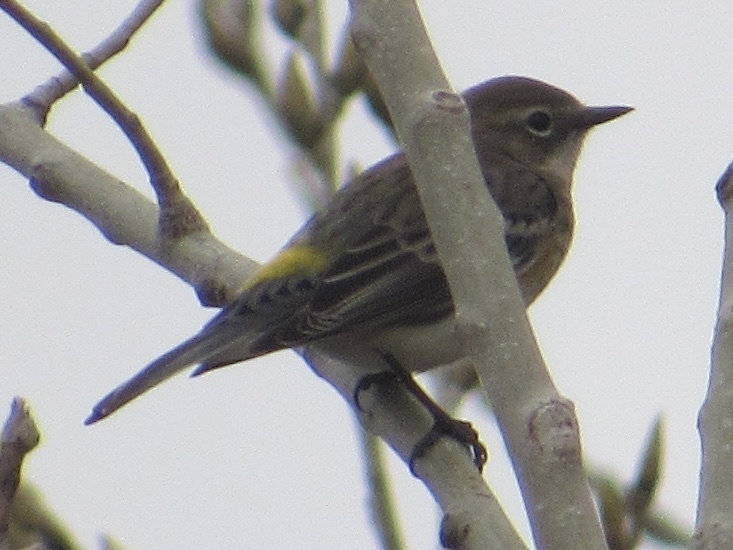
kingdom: Animalia
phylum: Chordata
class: Aves
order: Passeriformes
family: Parulidae
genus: Setophaga
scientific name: Setophaga coronata
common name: Myrtle warbler
